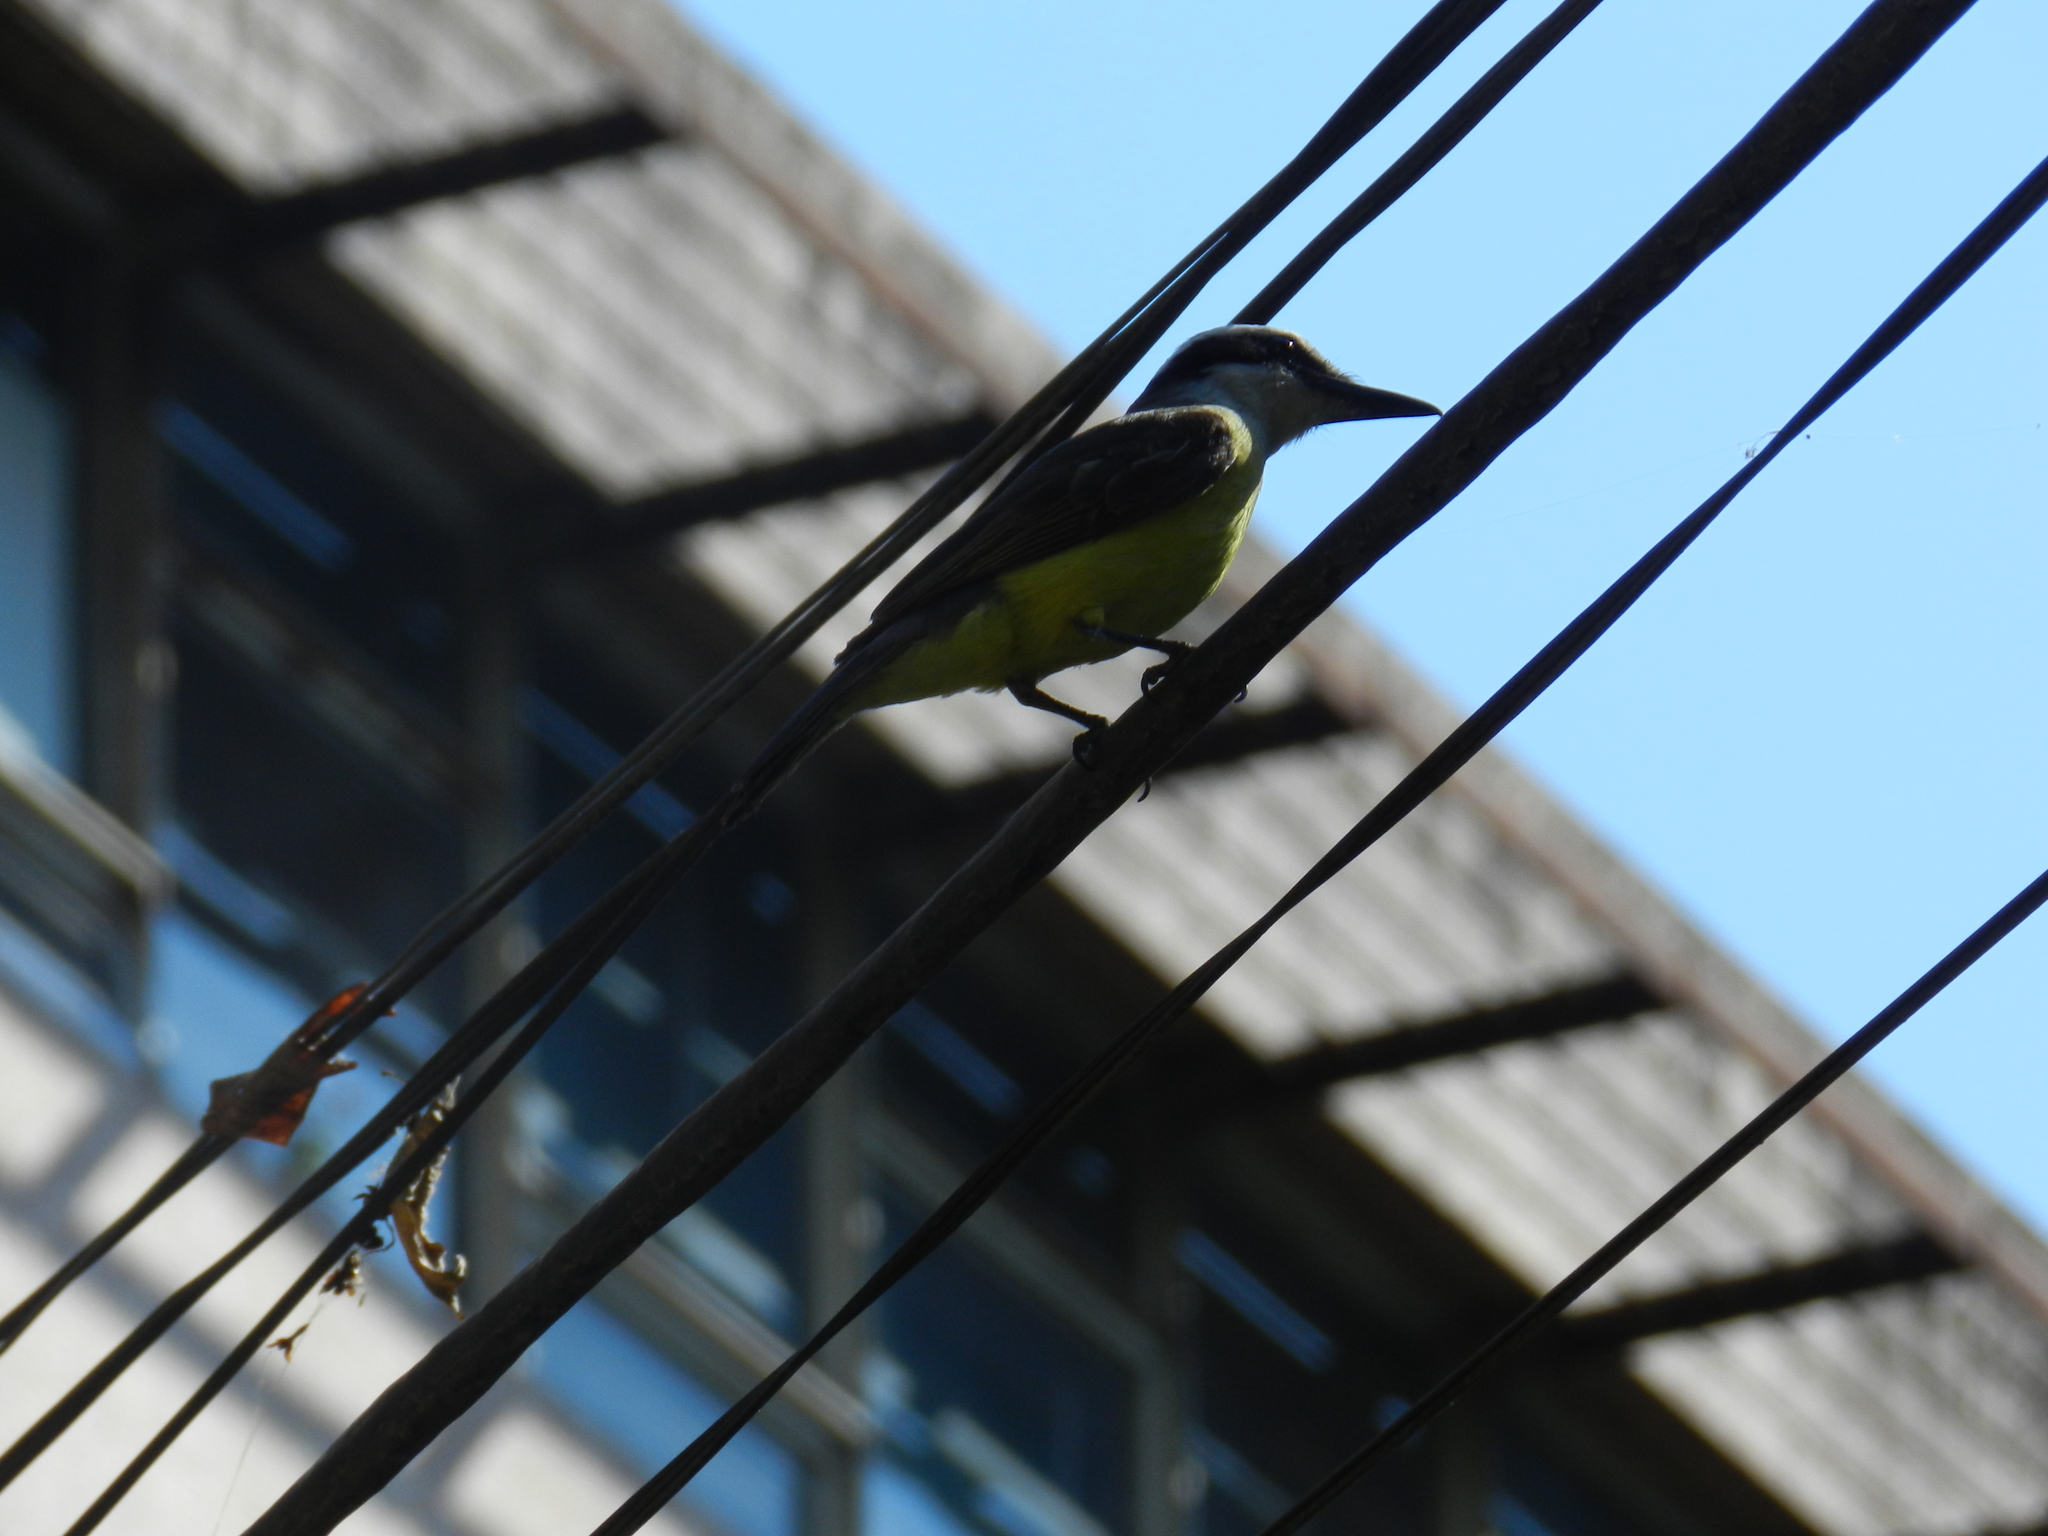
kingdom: Animalia
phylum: Chordata
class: Aves
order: Passeriformes
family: Tyrannidae
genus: Pitangus
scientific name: Pitangus sulphuratus
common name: Great kiskadee
